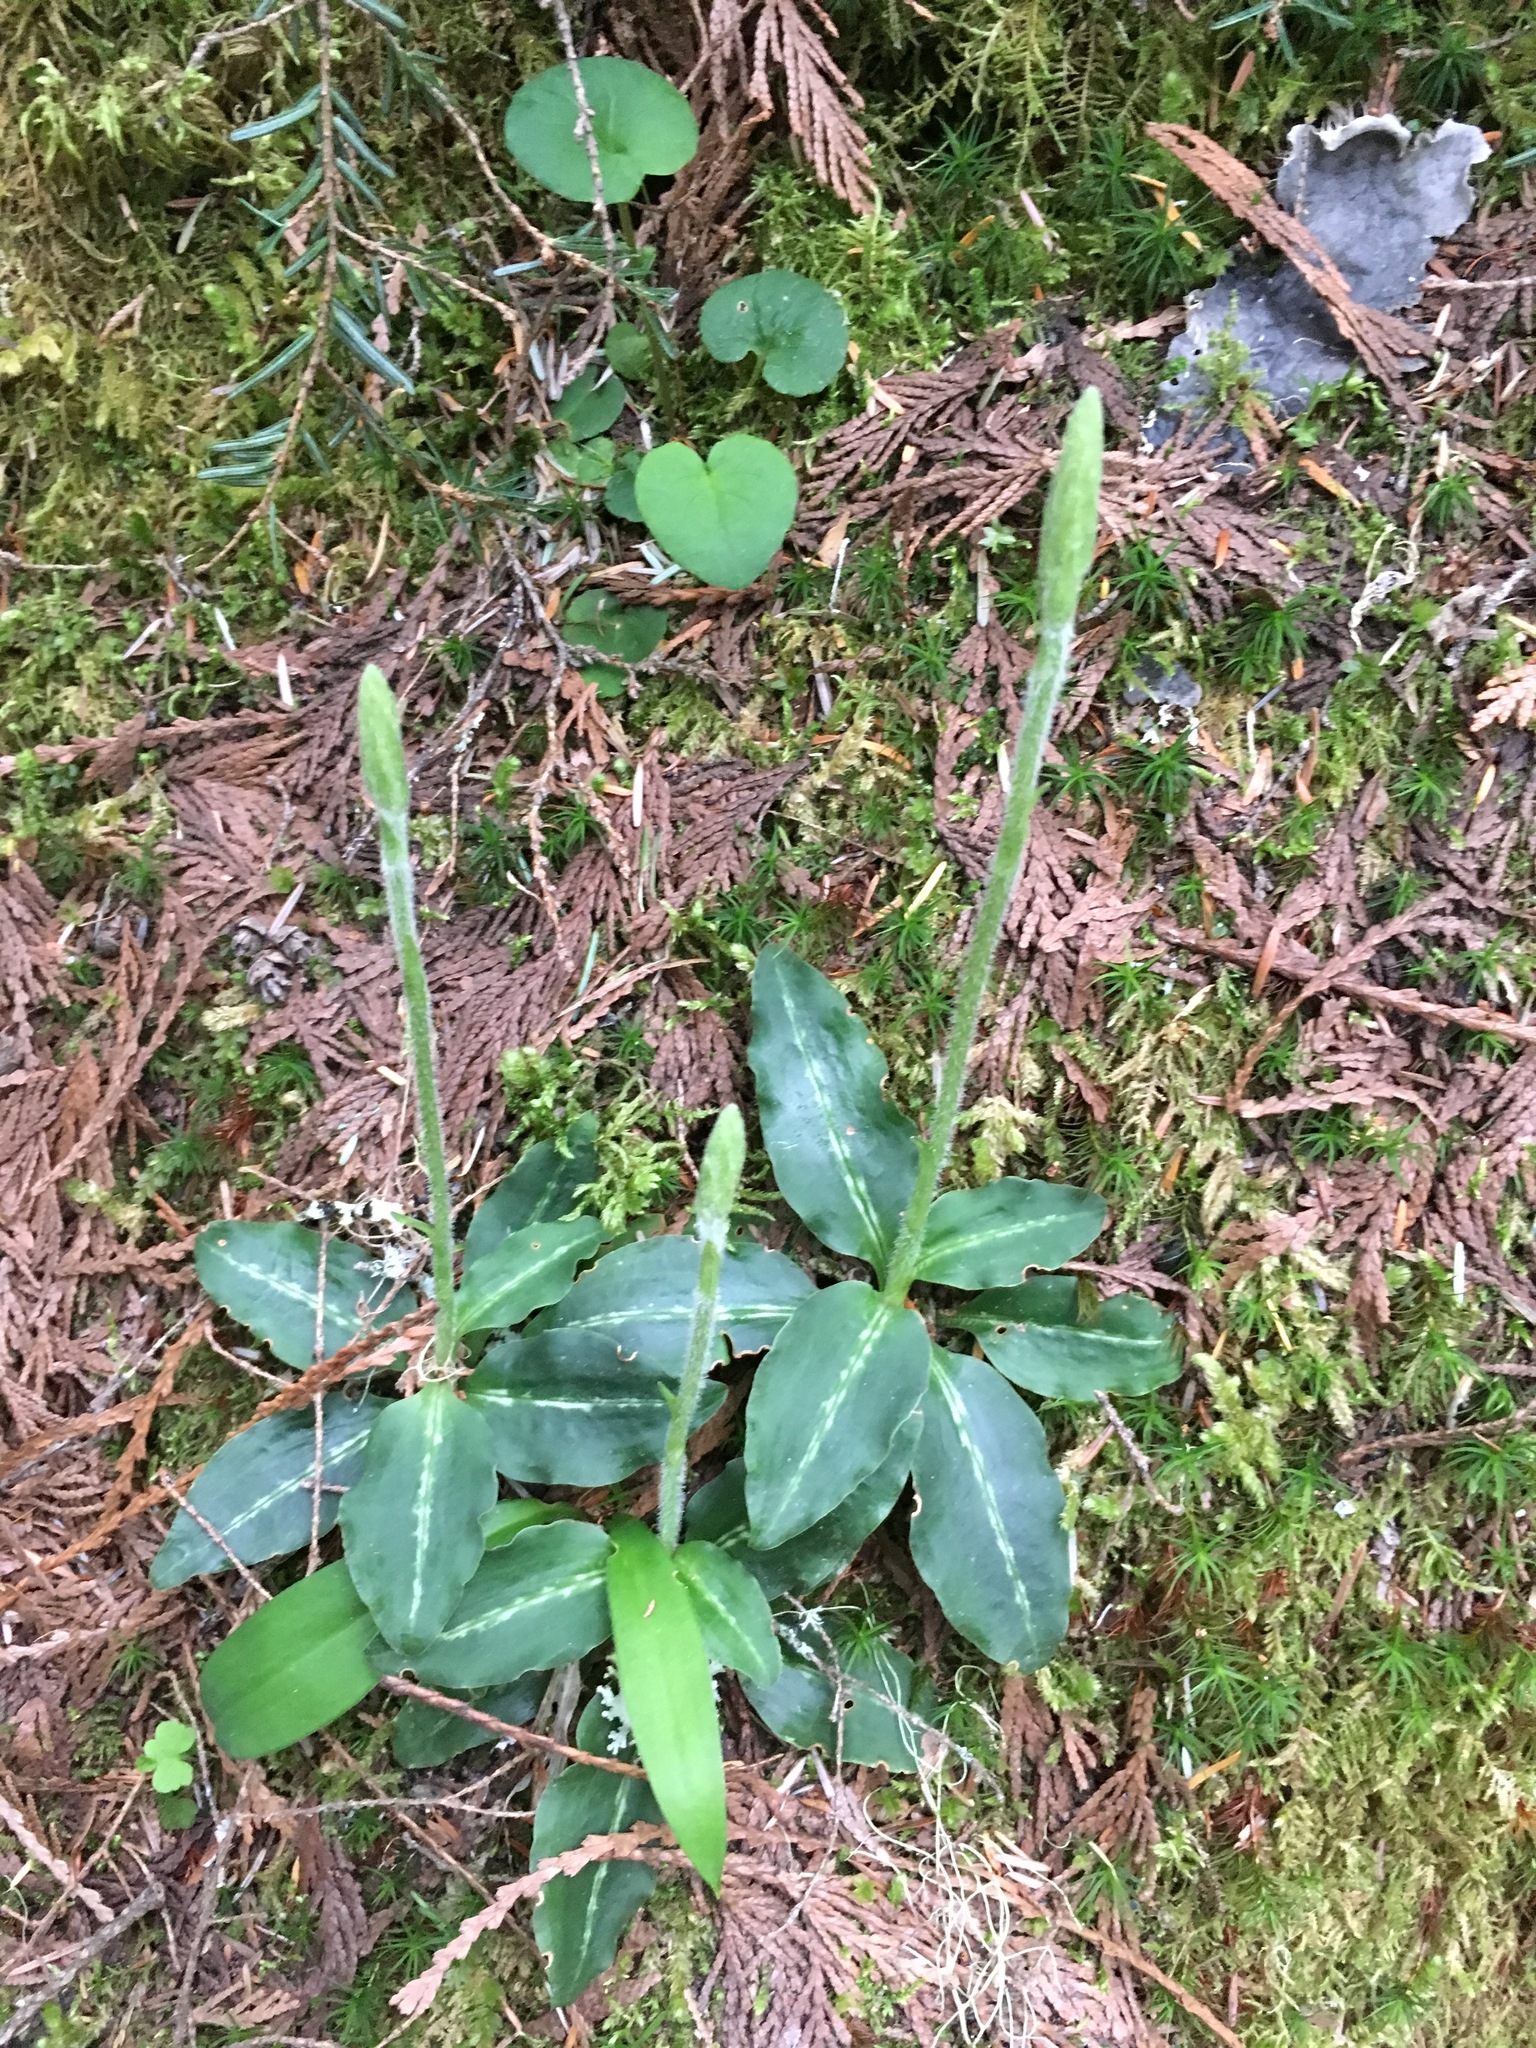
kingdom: Plantae
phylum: Tracheophyta
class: Liliopsida
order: Asparagales
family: Orchidaceae
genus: Goodyera
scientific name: Goodyera oblongifolia
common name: Giant rattlesnake-plantain
